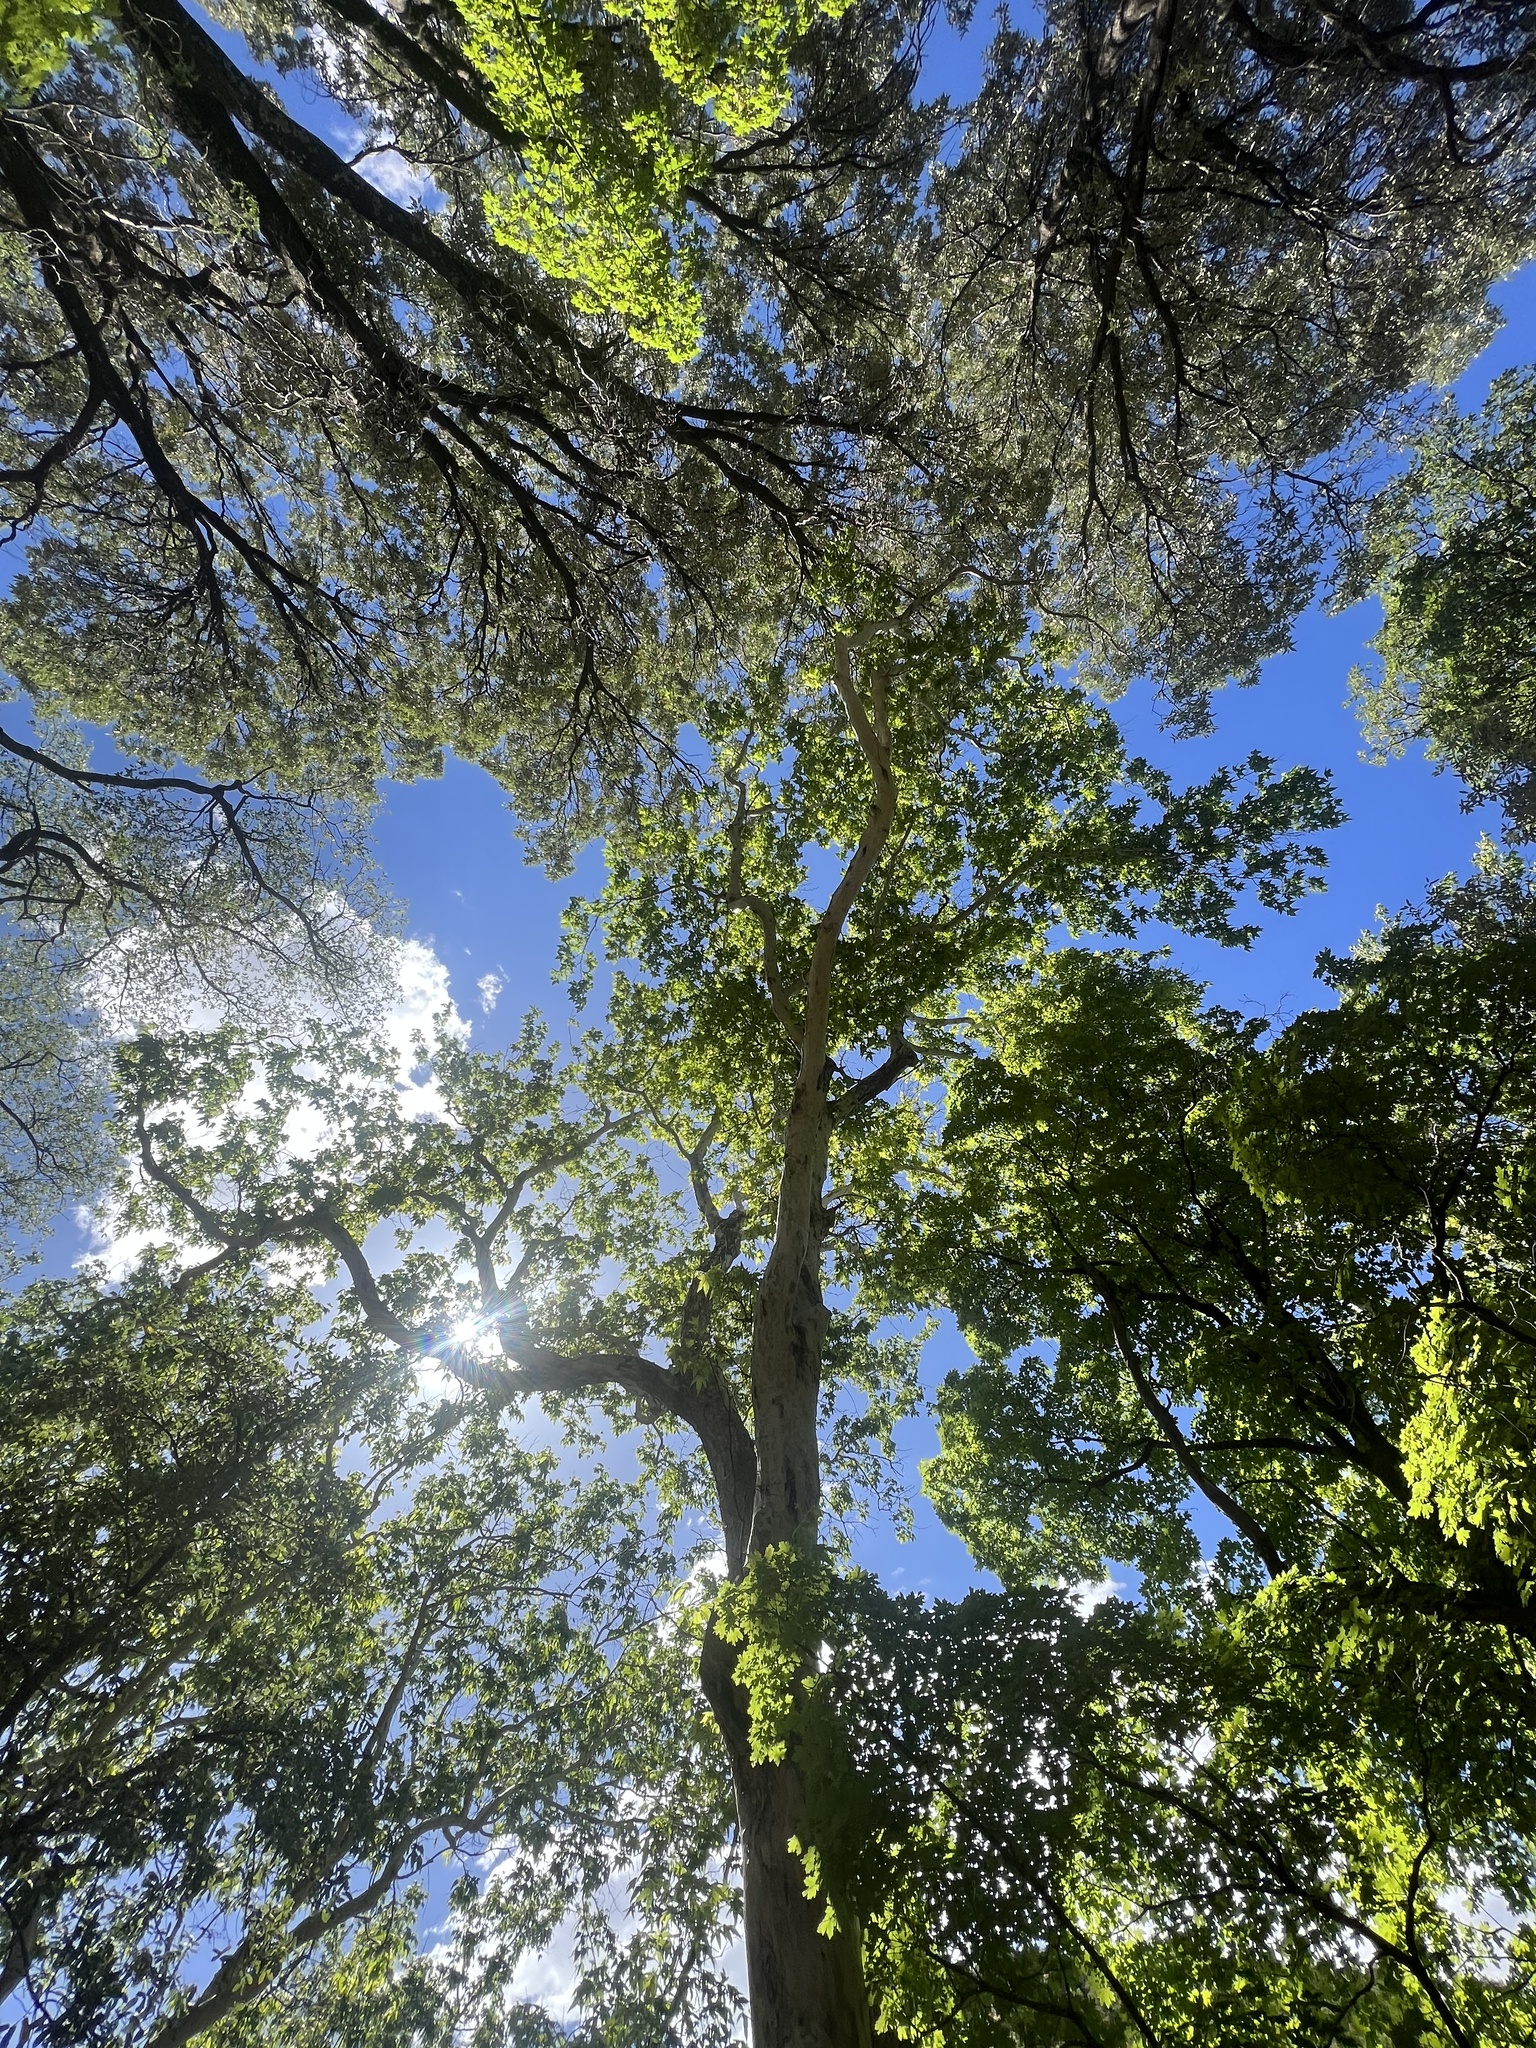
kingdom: Plantae
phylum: Tracheophyta
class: Magnoliopsida
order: Proteales
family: Platanaceae
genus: Platanus
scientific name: Platanus wrightii
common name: Arizona sycamore
